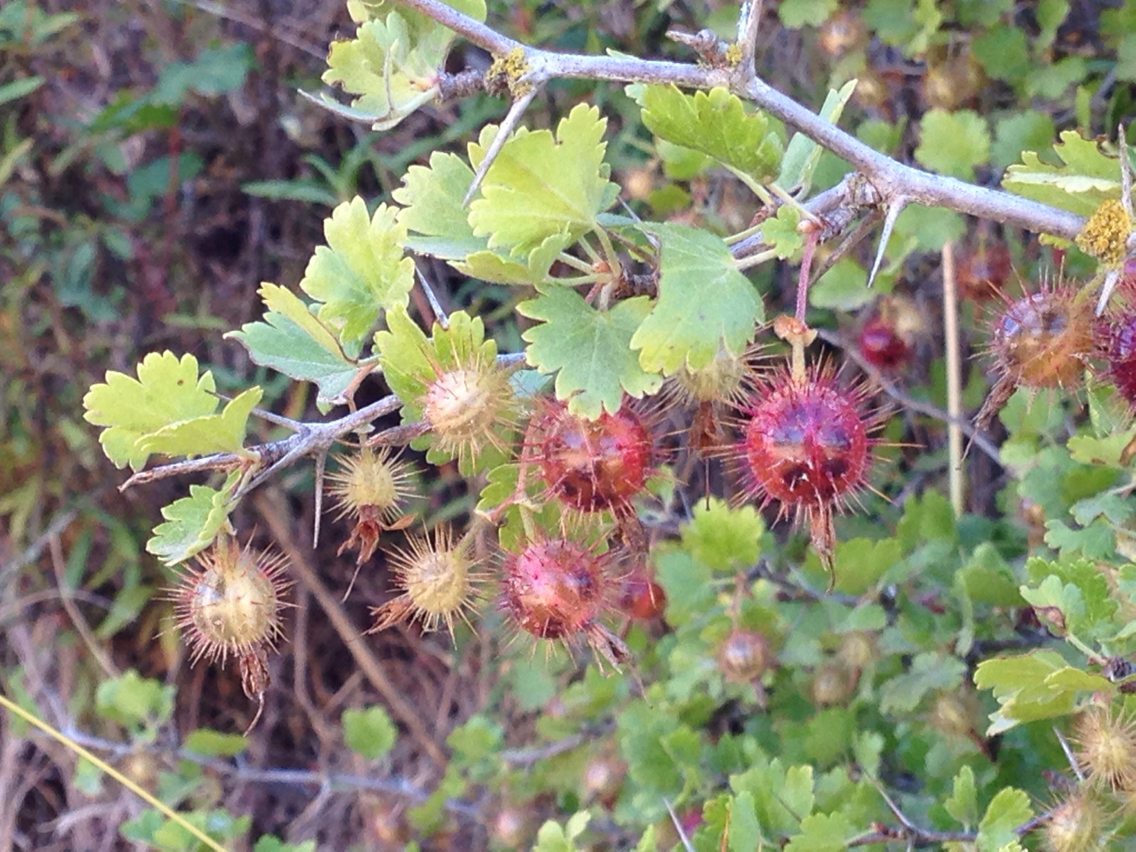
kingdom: Plantae
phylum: Tracheophyta
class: Magnoliopsida
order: Saxifragales
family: Grossulariaceae
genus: Ribes
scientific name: Ribes californicum
